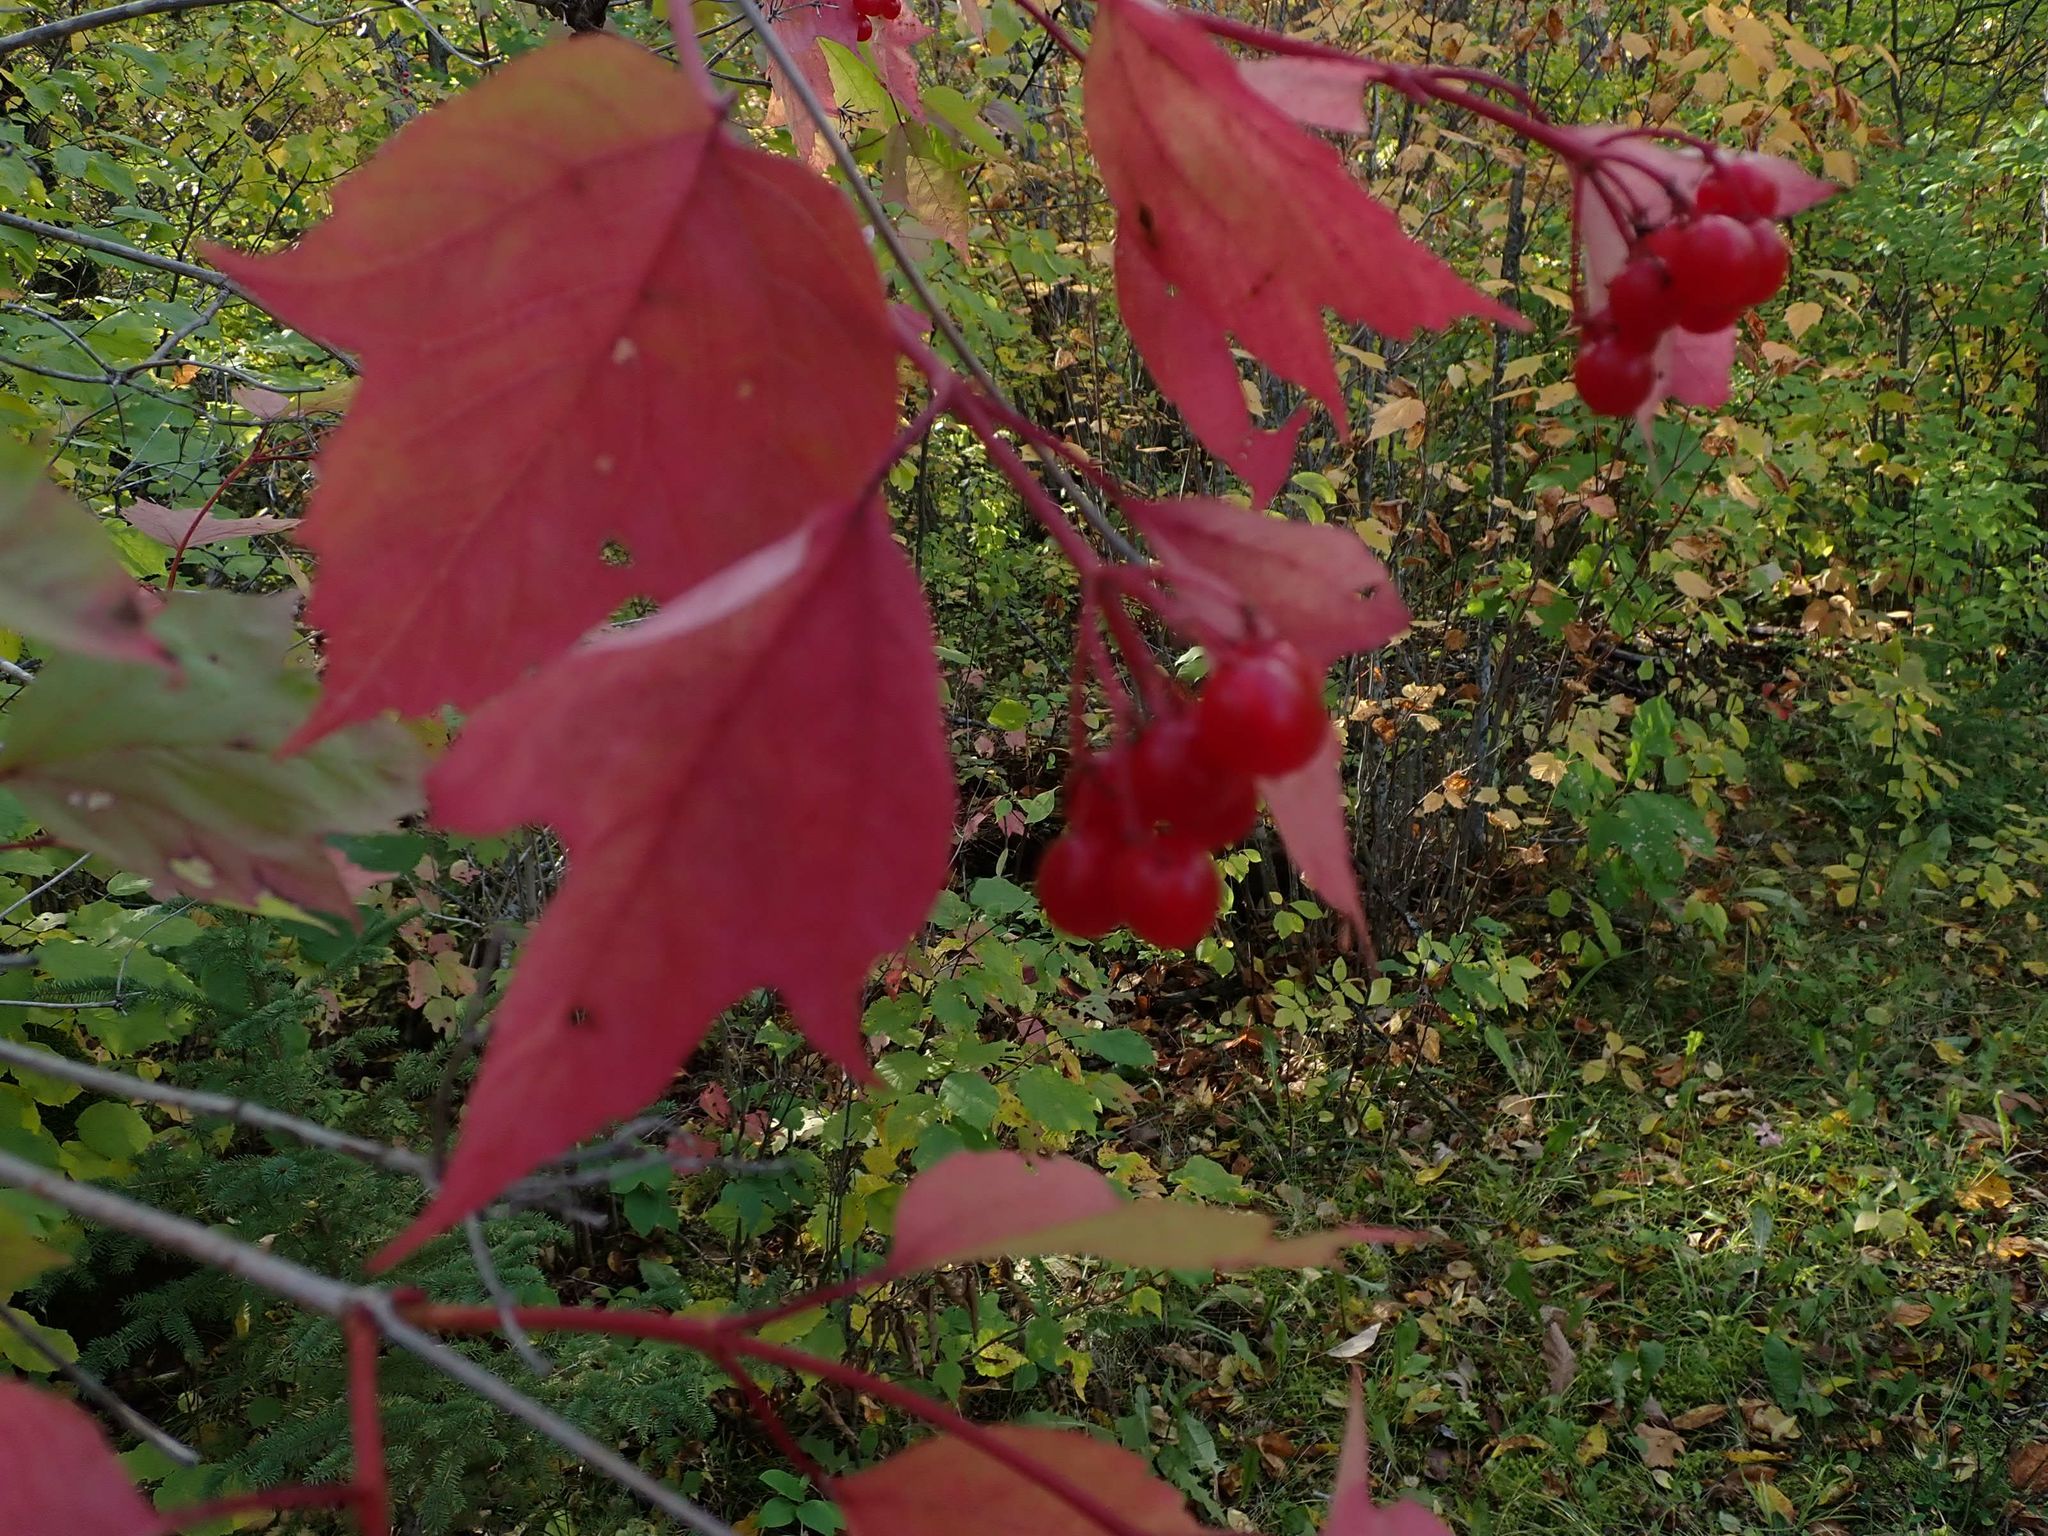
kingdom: Plantae
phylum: Tracheophyta
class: Magnoliopsida
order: Dipsacales
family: Viburnaceae
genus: Viburnum
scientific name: Viburnum trilobum
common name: American cranberrybush
